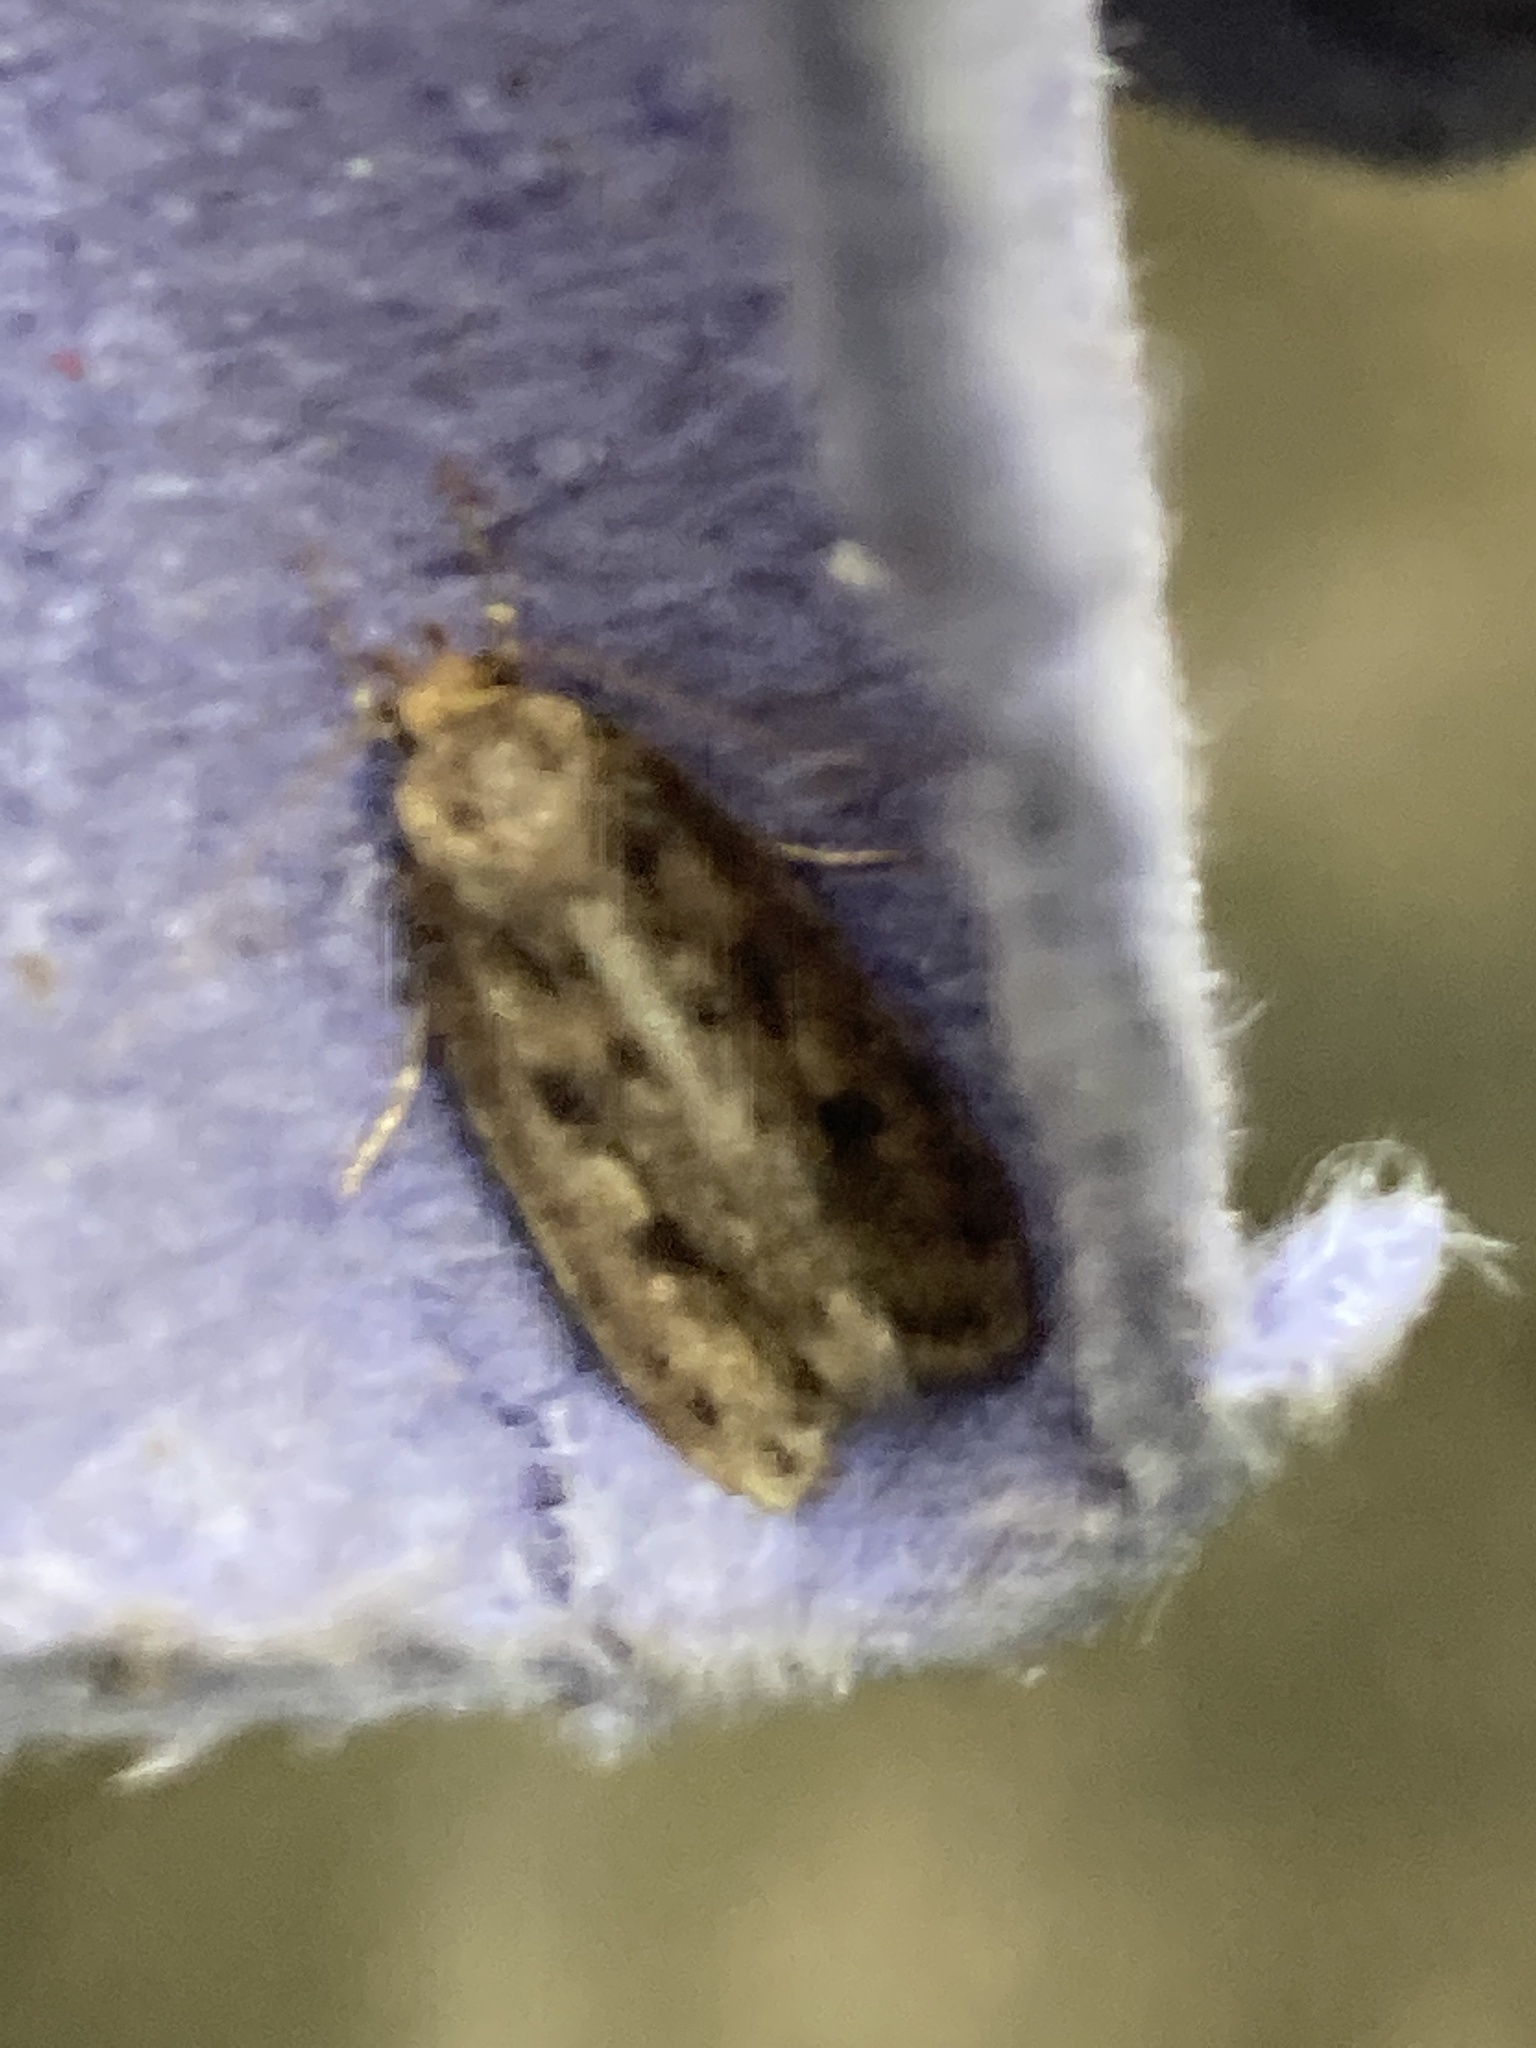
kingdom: Animalia
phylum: Arthropoda
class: Insecta
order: Lepidoptera
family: Oecophoridae
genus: Hofmannophila
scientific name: Hofmannophila pseudospretella
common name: Brown house moth
